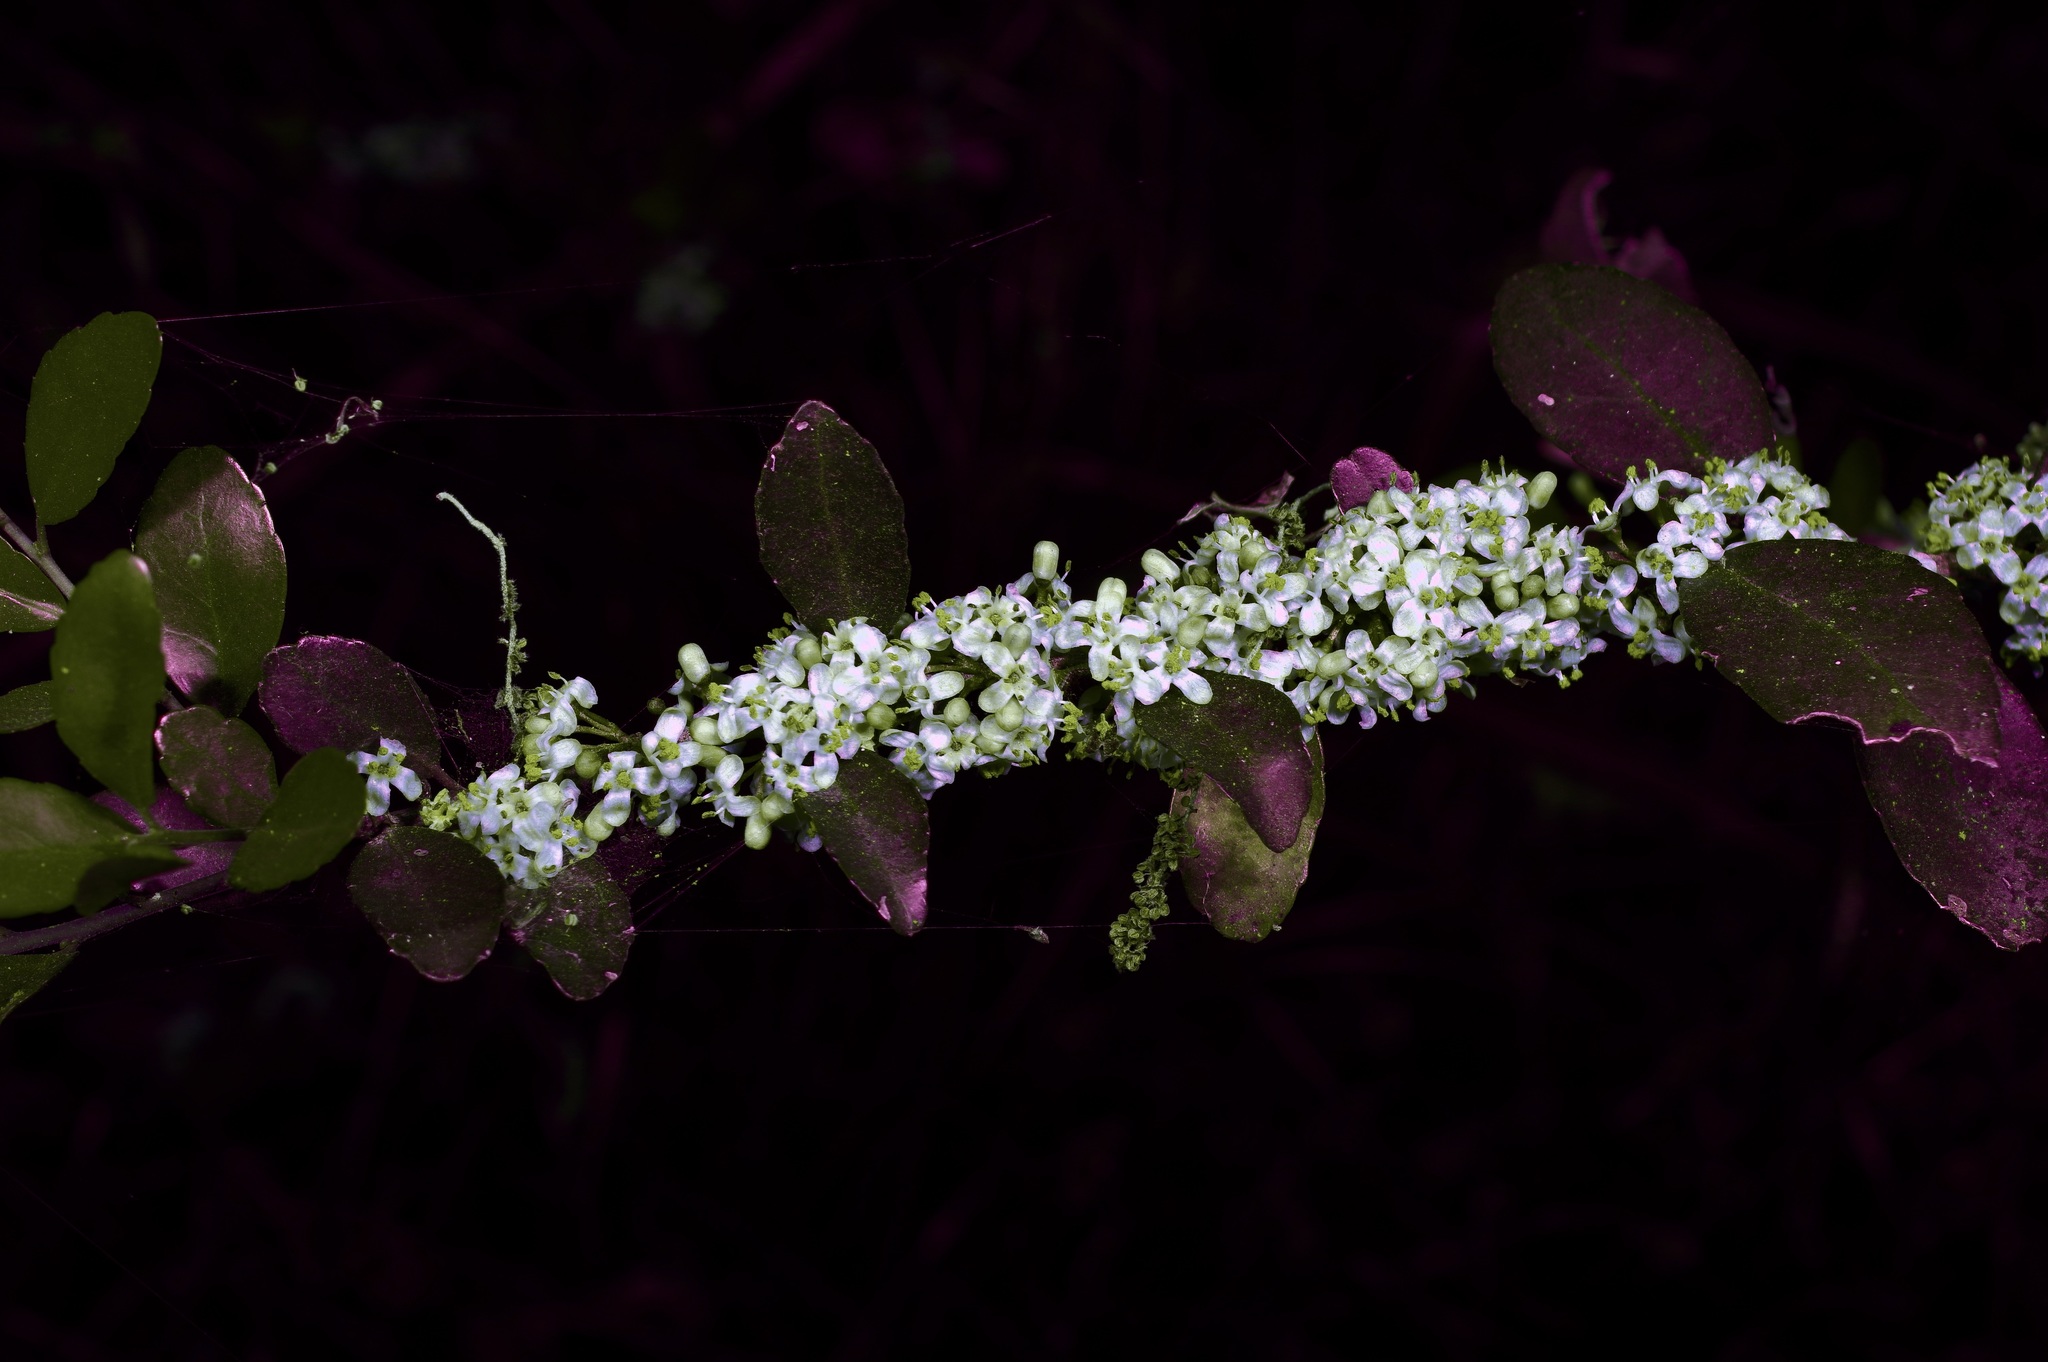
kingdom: Plantae
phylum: Tracheophyta
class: Magnoliopsida
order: Aquifoliales
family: Aquifoliaceae
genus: Ilex
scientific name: Ilex vomitoria
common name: Yaupon holly
